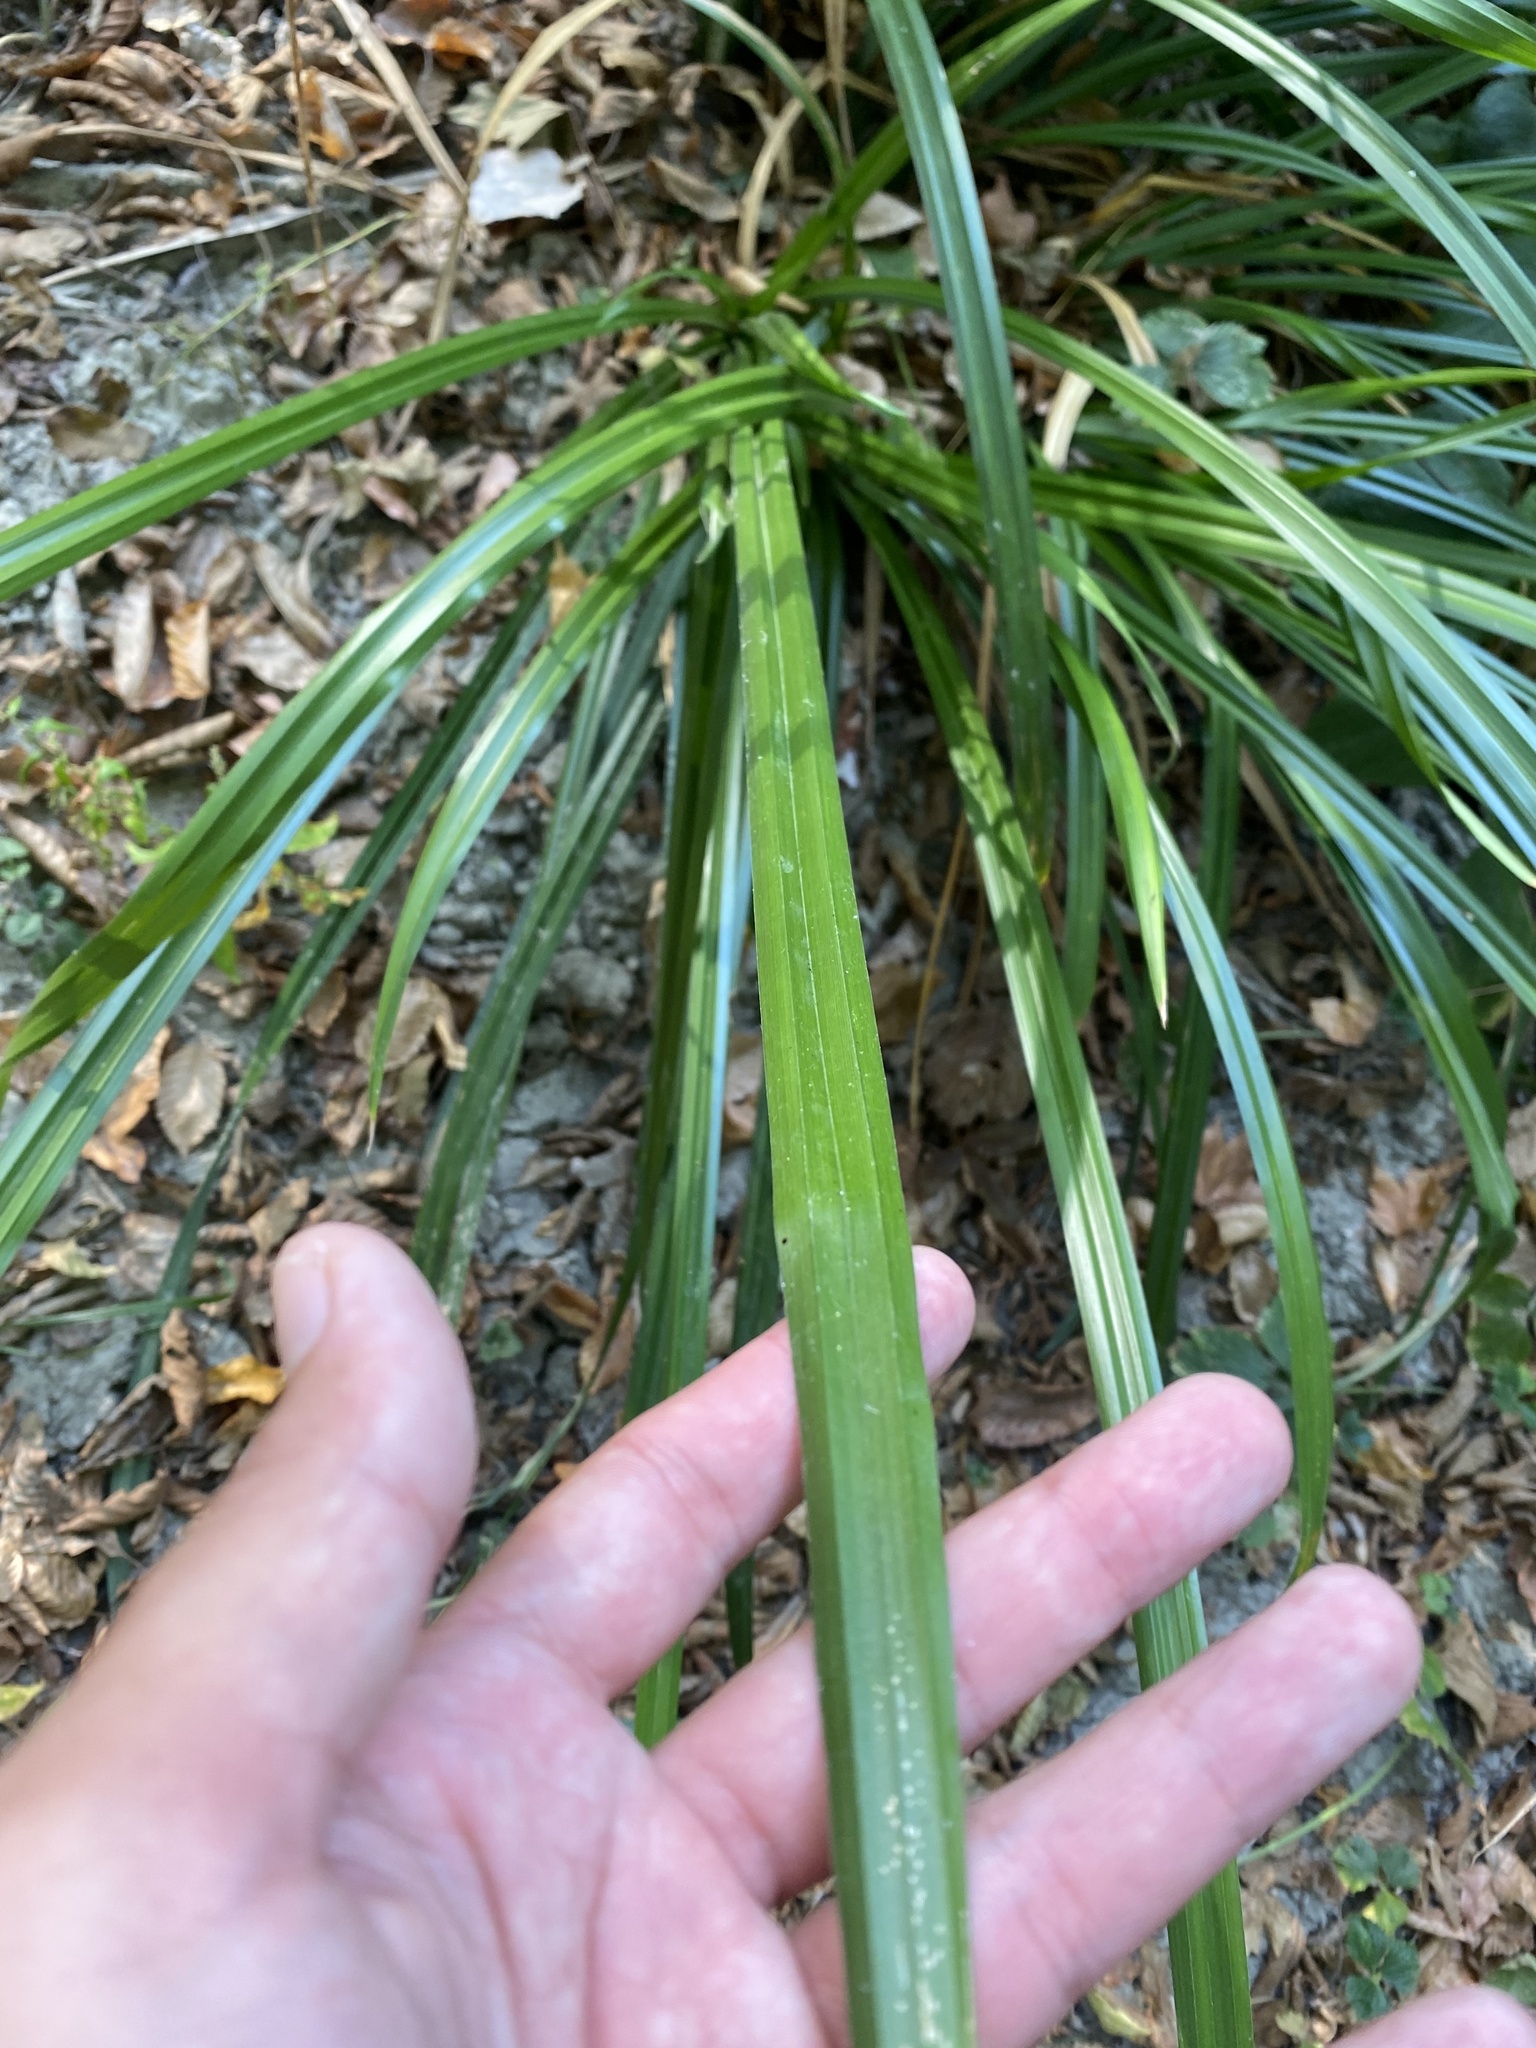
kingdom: Plantae
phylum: Tracheophyta
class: Liliopsida
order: Poales
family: Cyperaceae
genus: Carex
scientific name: Carex pendula
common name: Pendulous sedge
